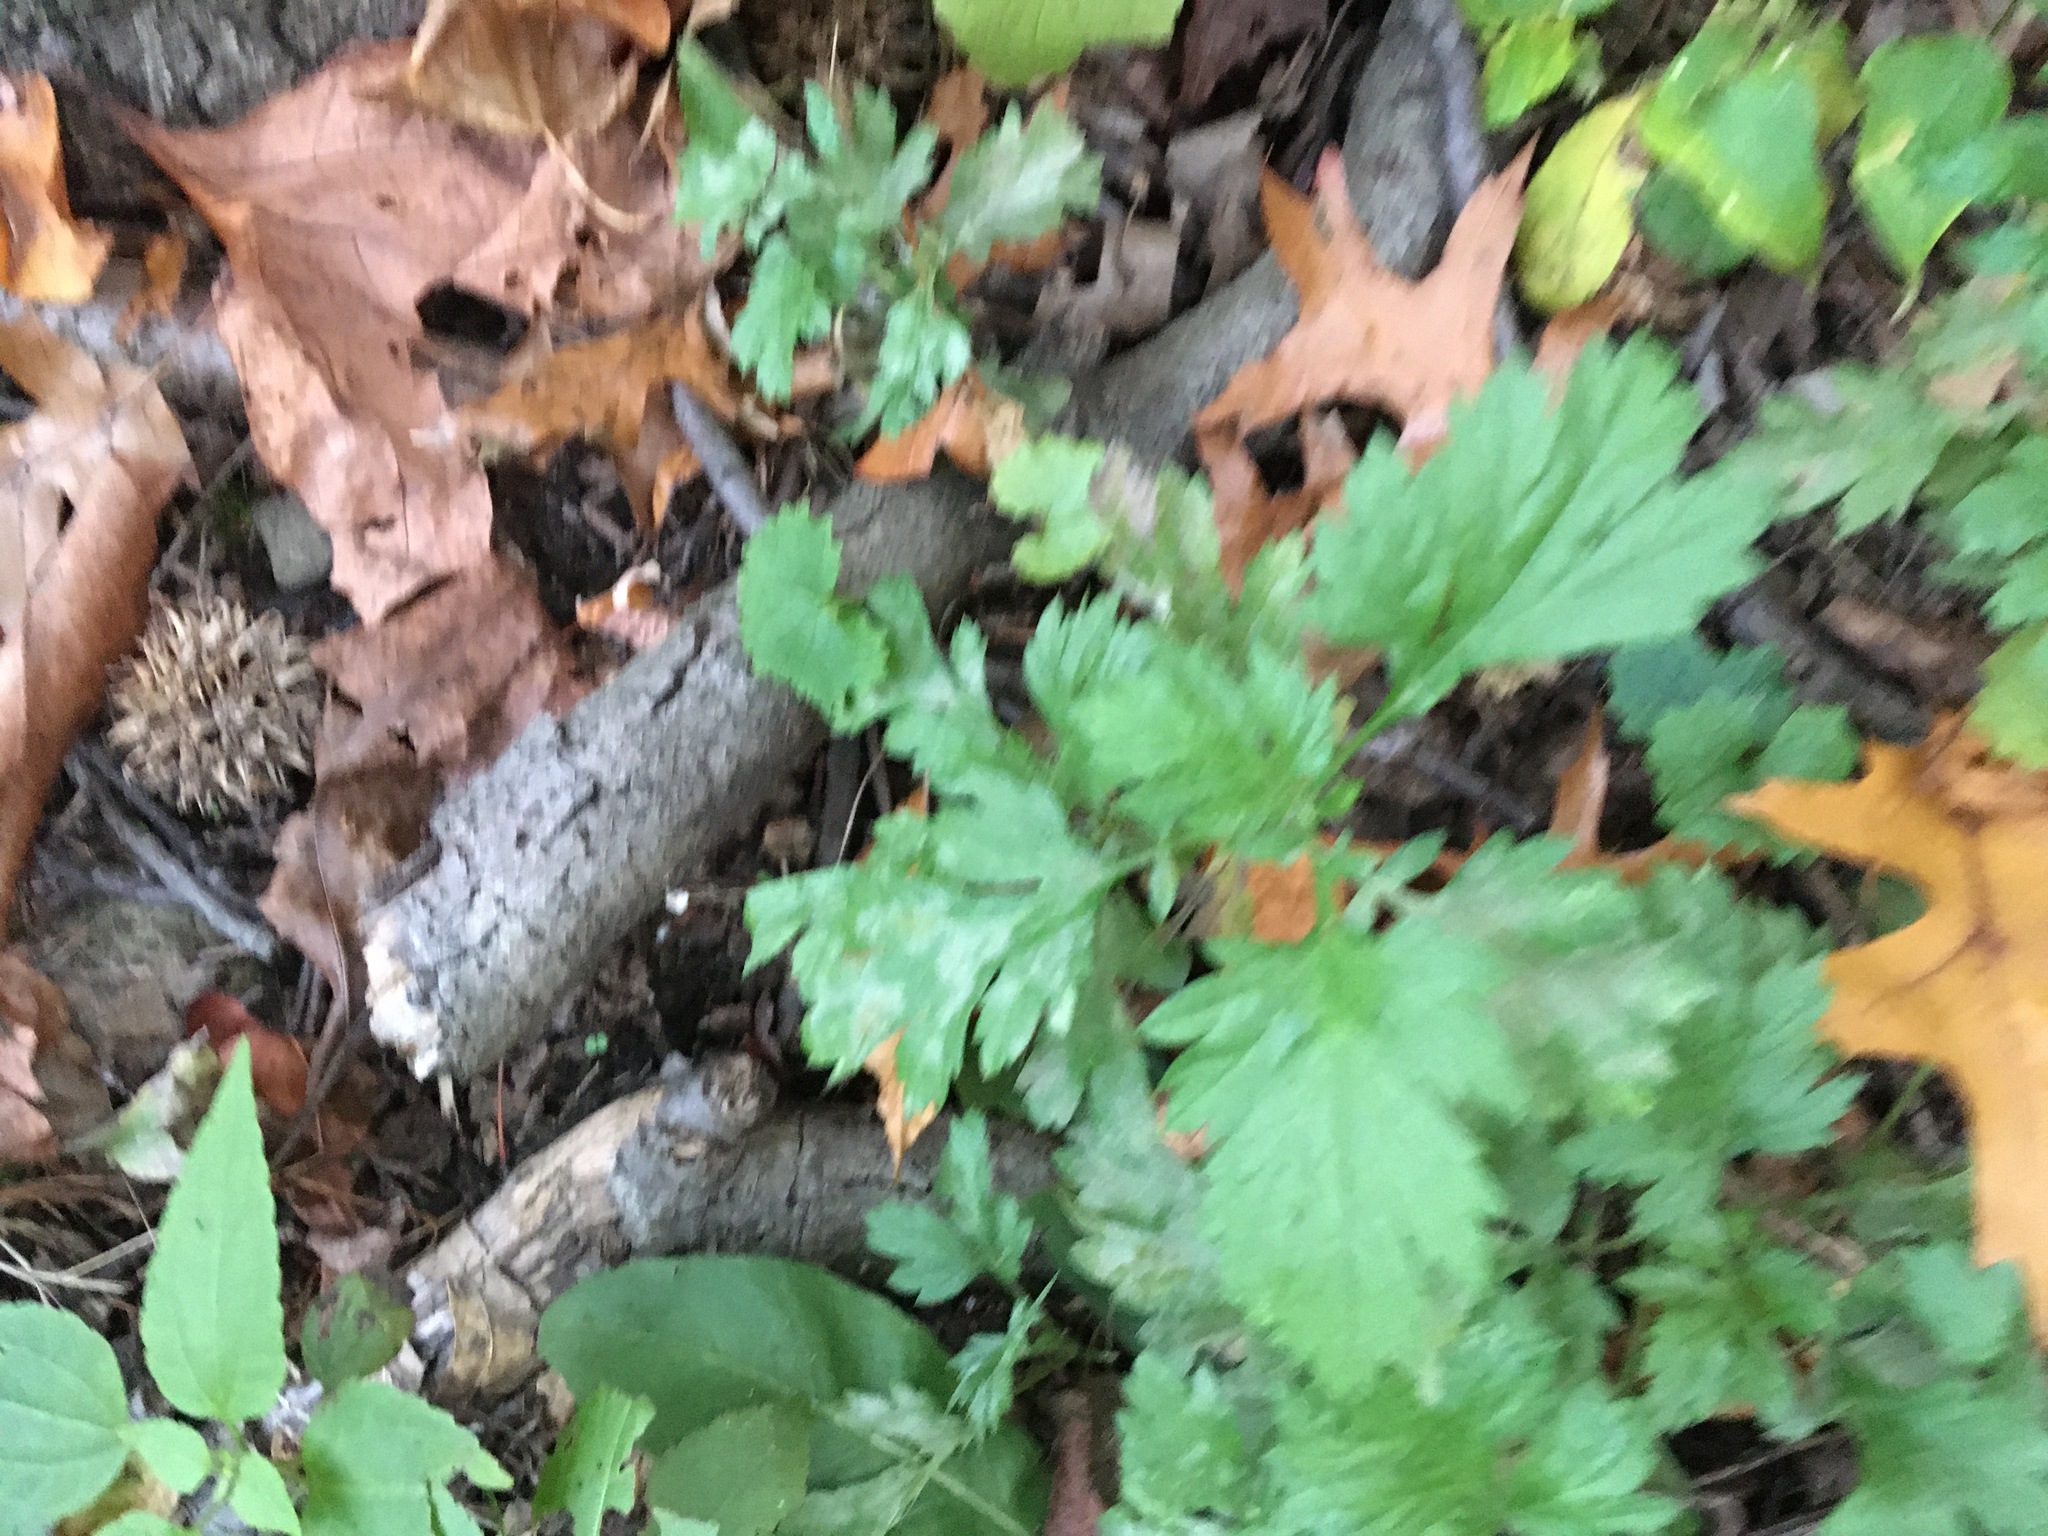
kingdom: Plantae
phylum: Tracheophyta
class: Magnoliopsida
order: Asterales
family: Asteraceae
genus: Artemisia
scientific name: Artemisia vulgaris
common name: Mugwort
